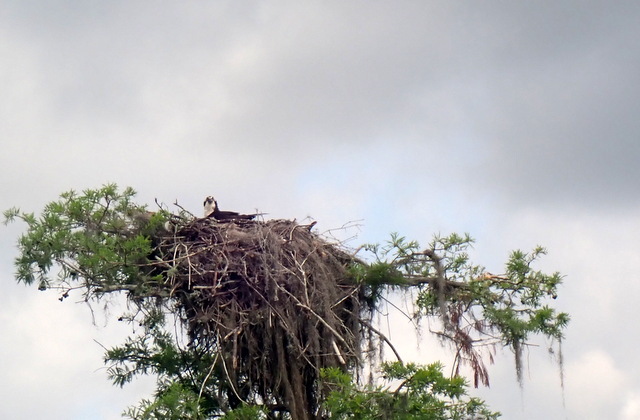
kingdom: Animalia
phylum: Chordata
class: Aves
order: Accipitriformes
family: Pandionidae
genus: Pandion
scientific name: Pandion haliaetus
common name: Osprey
